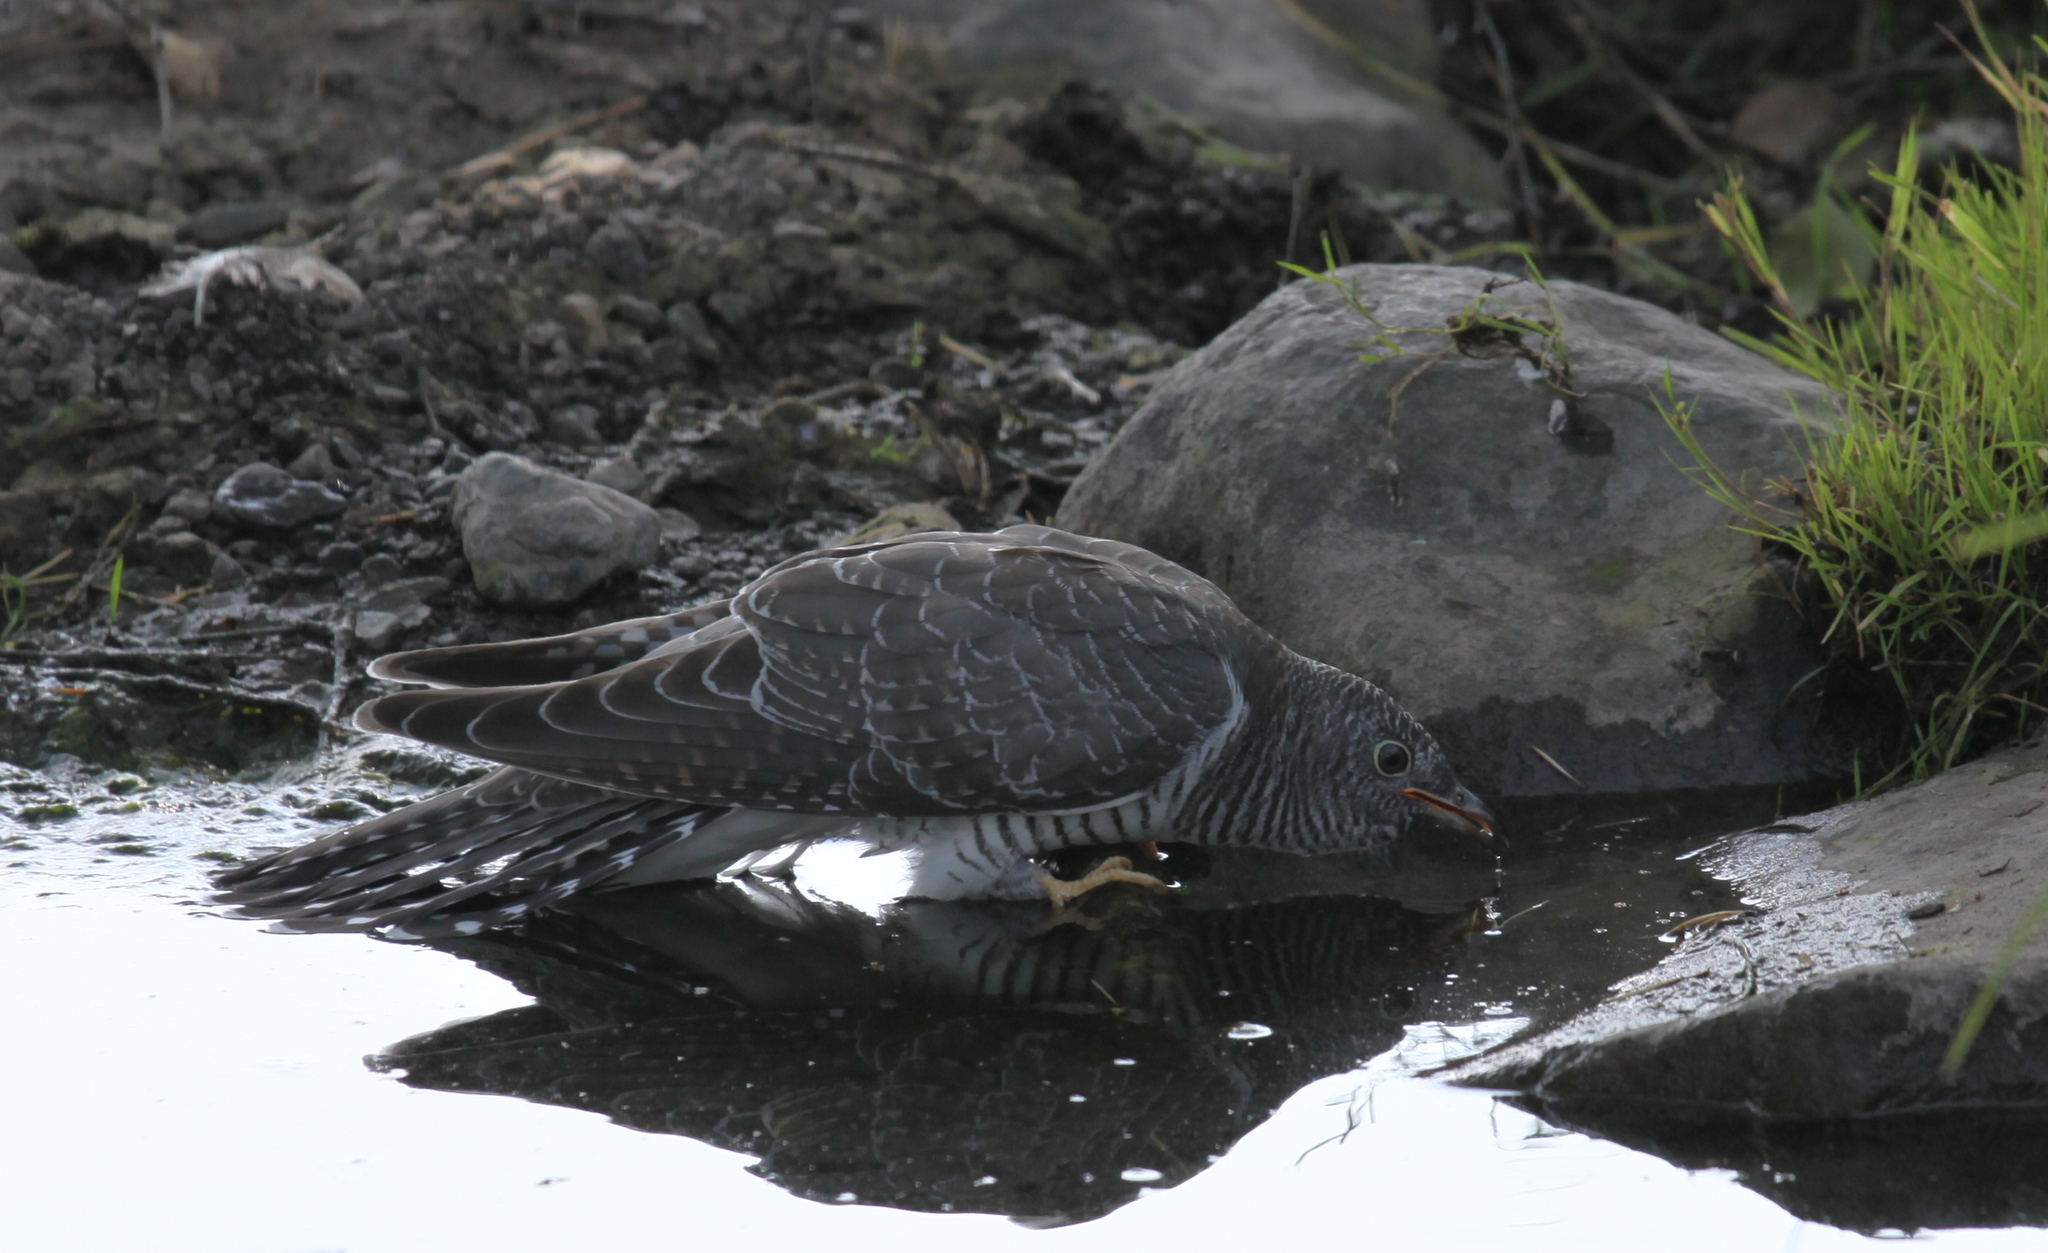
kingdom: Animalia
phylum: Chordata
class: Aves
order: Cuculiformes
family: Cuculidae
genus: Cuculus
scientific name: Cuculus canorus
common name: Common cuckoo
